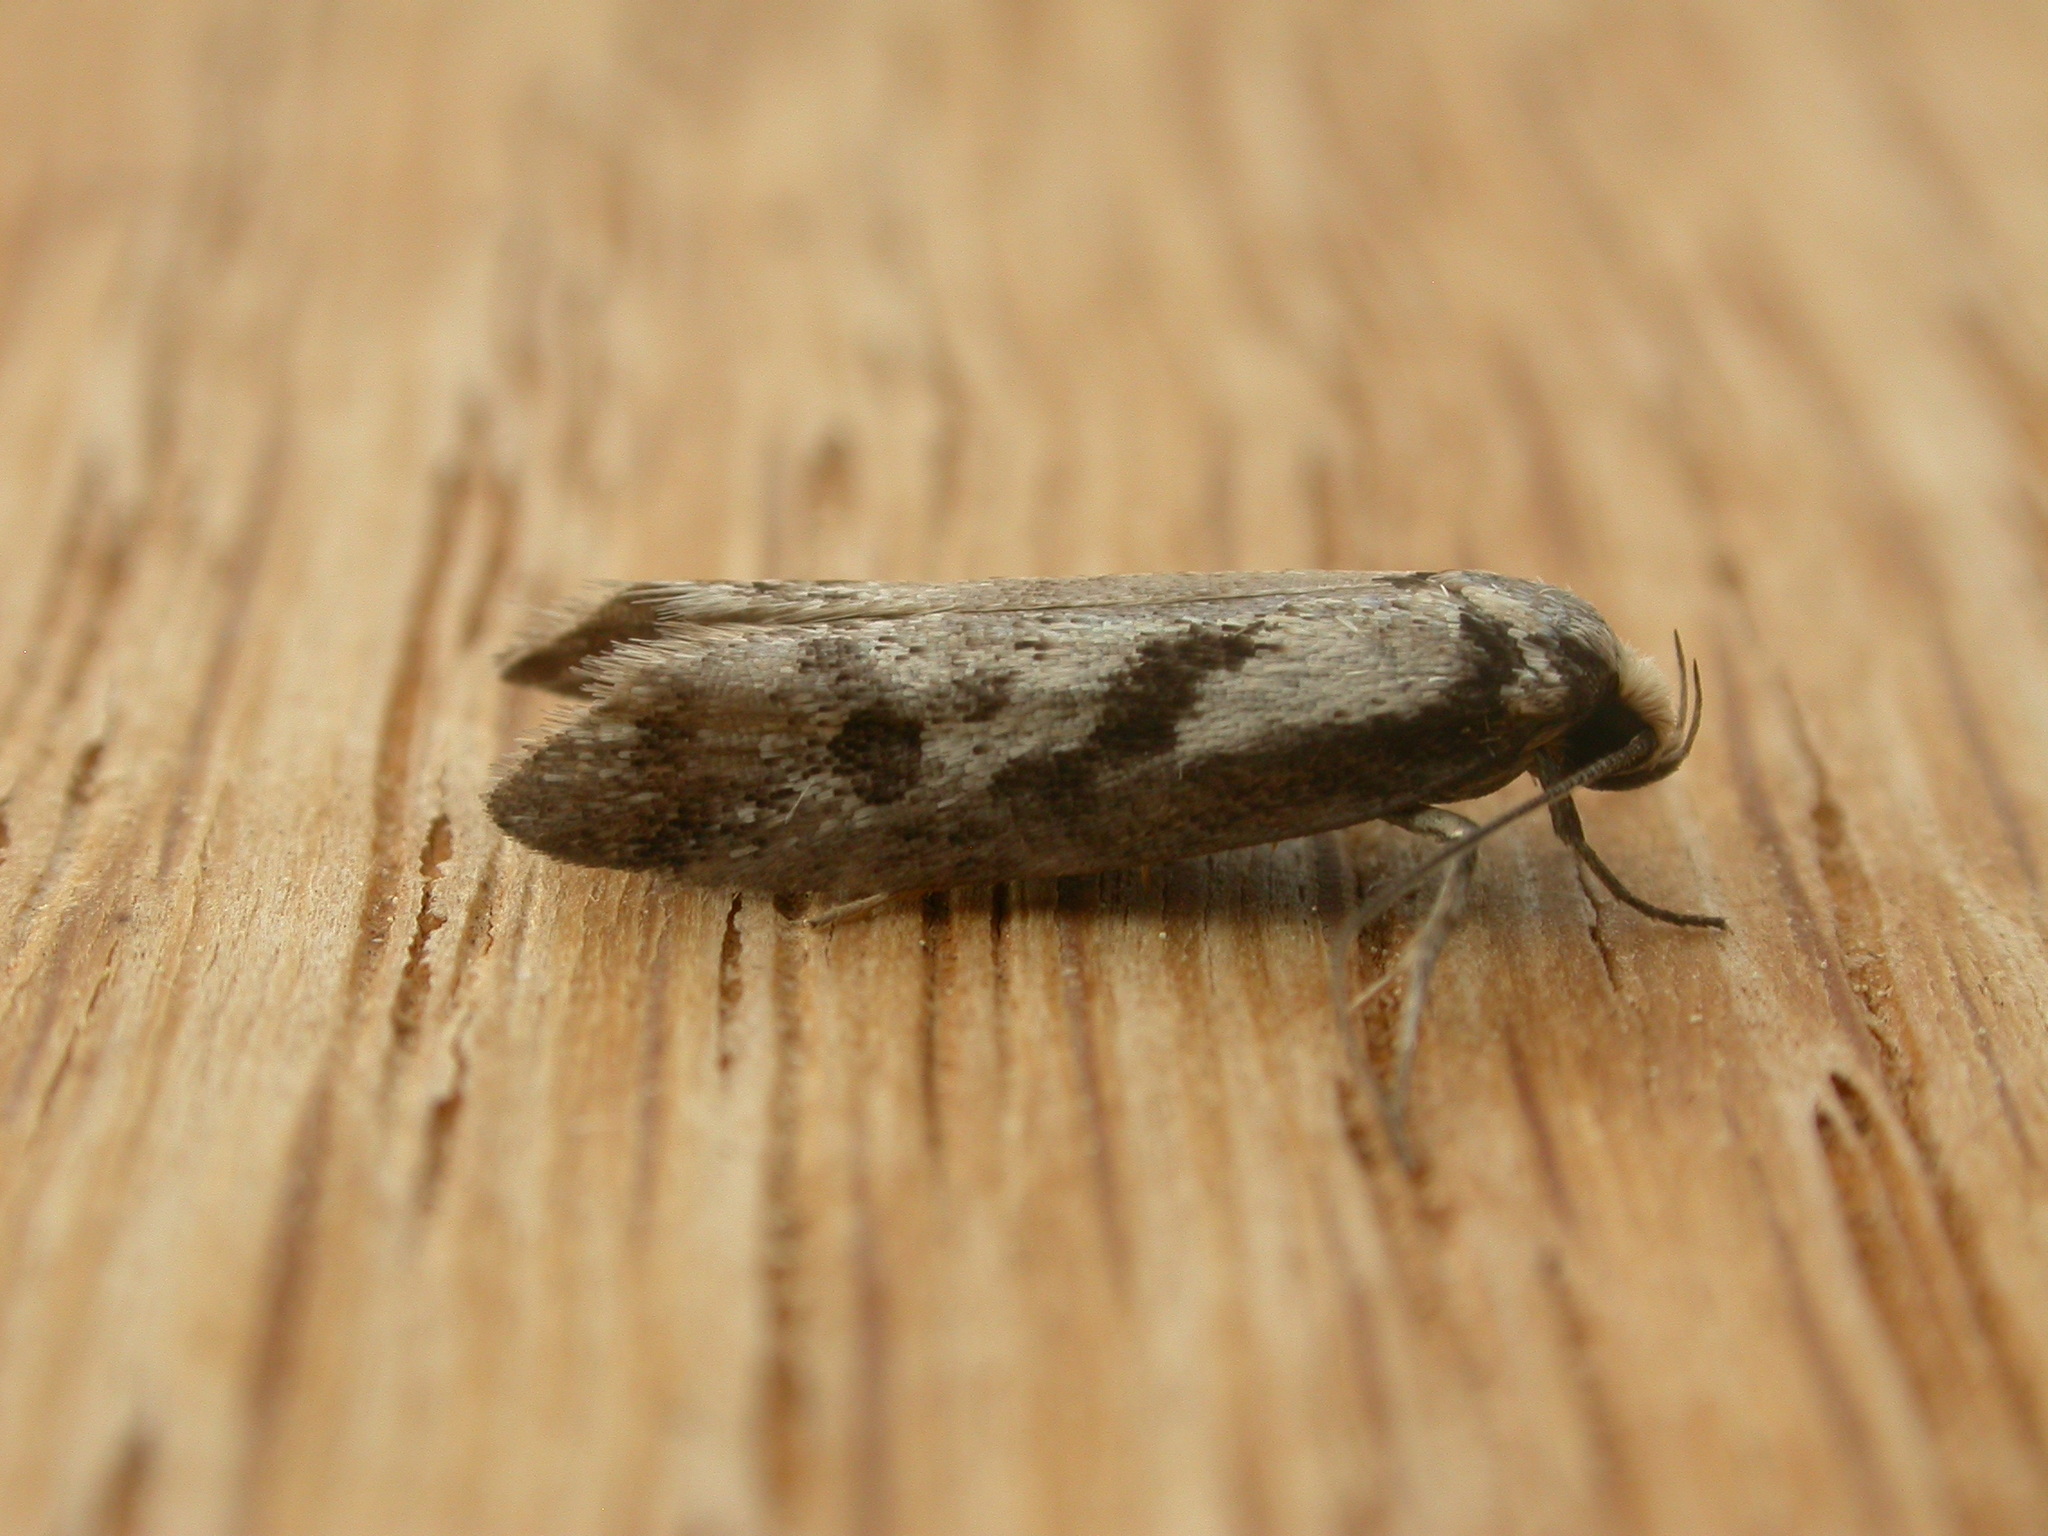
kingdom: Animalia
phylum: Arthropoda
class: Insecta
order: Lepidoptera
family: Oecophoridae
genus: Eusemocosma
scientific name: Eusemocosma pruinosa
